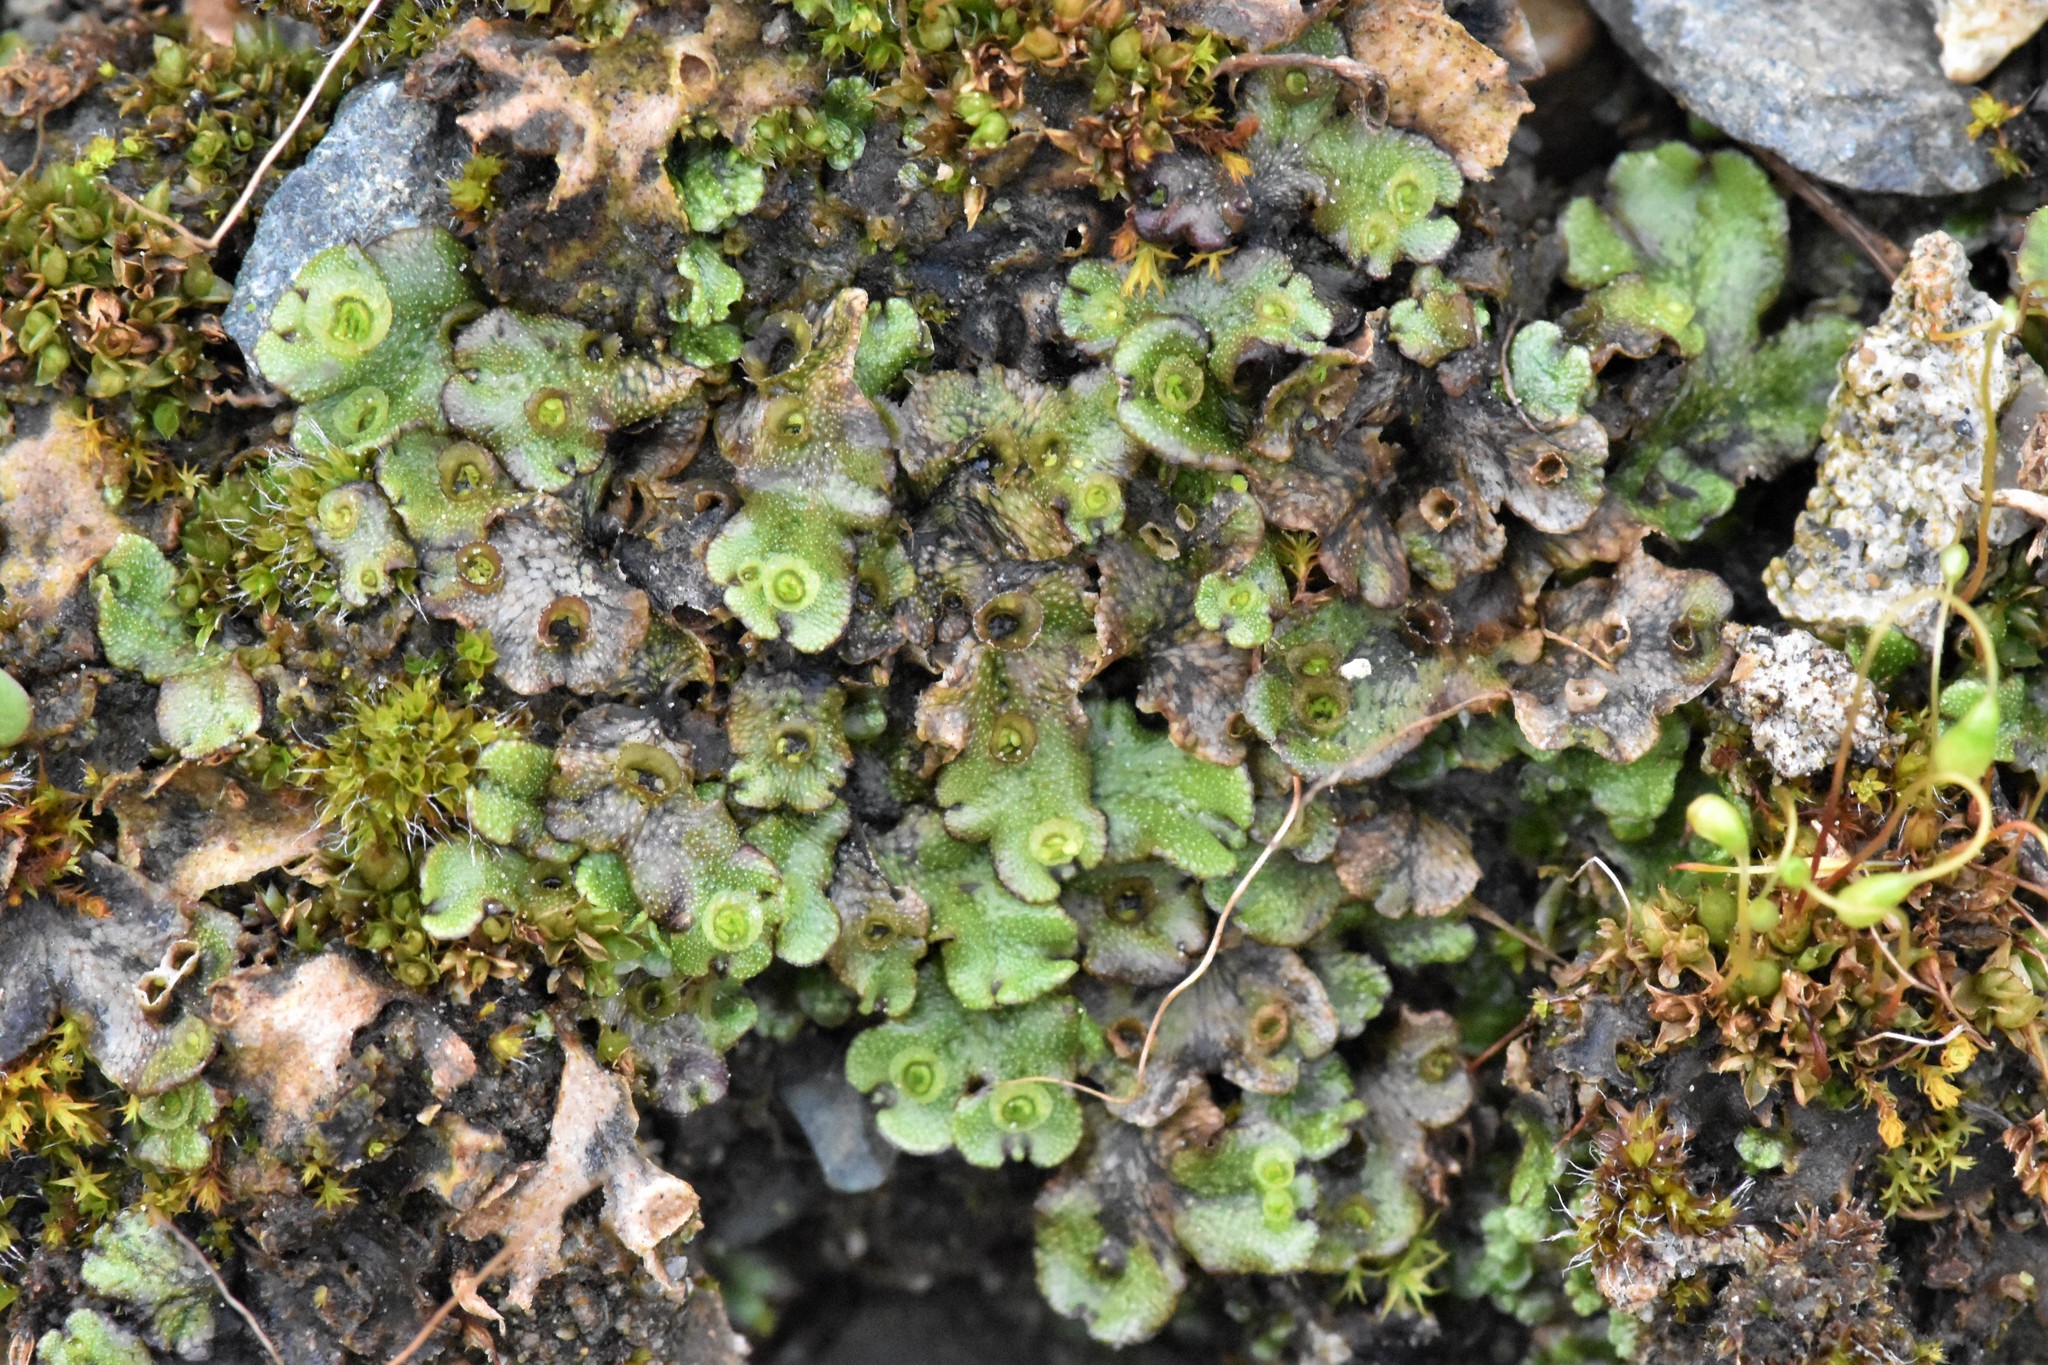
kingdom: Plantae
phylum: Marchantiophyta
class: Marchantiopsida
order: Marchantiales
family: Marchantiaceae
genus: Marchantia
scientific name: Marchantia polymorpha
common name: Common liverwort
